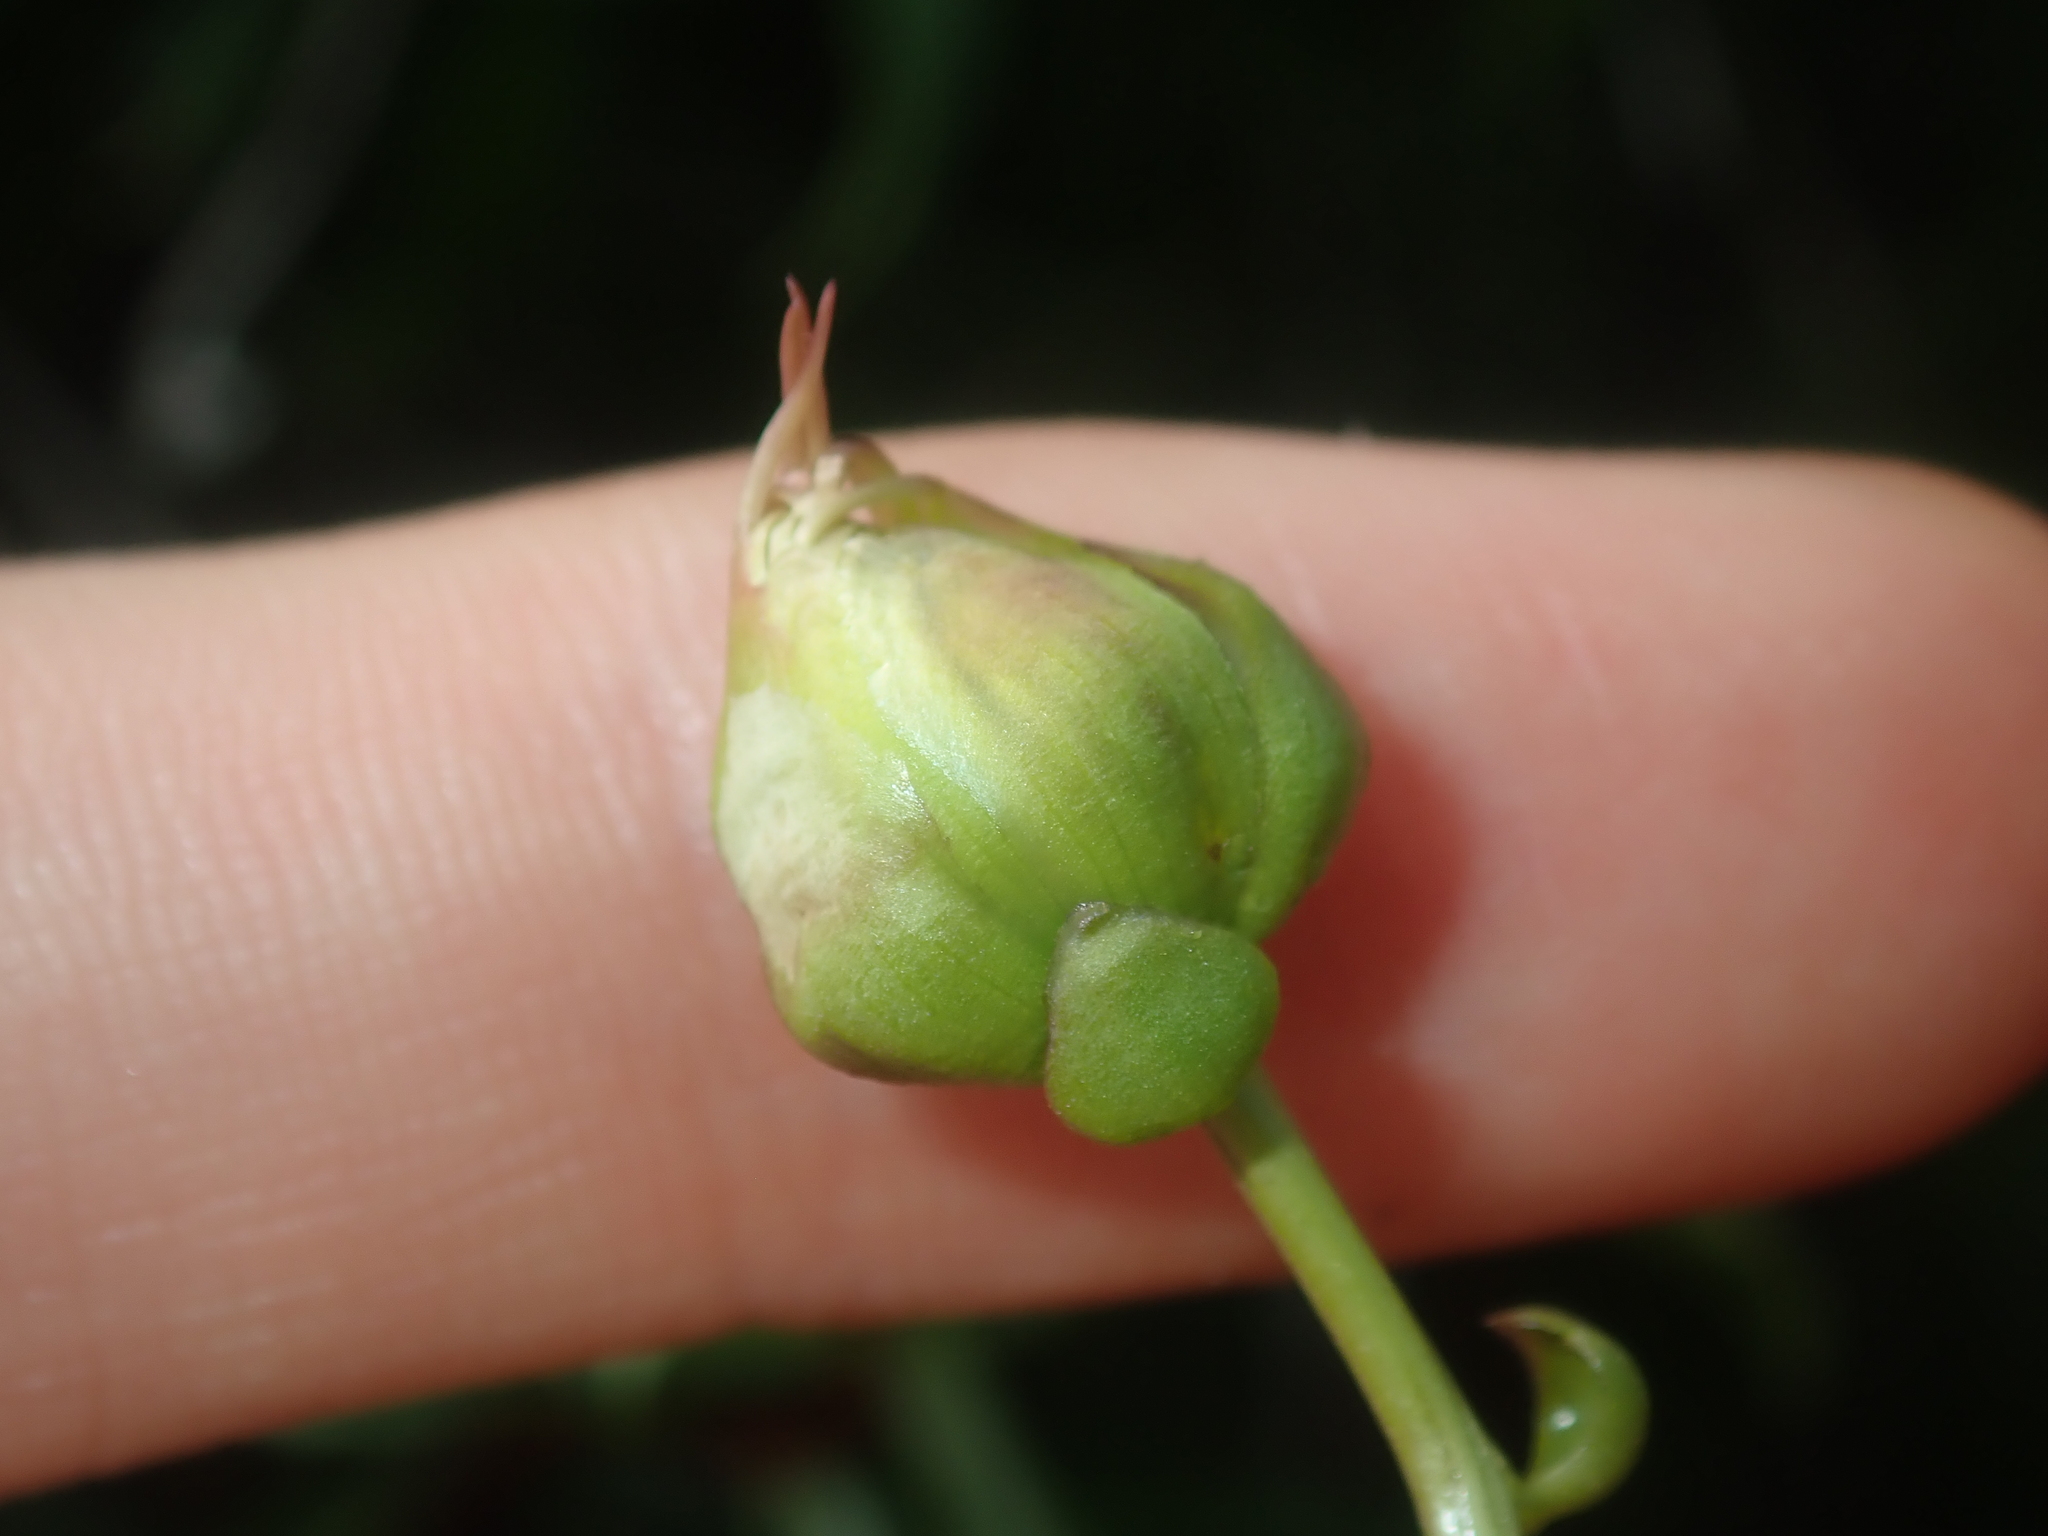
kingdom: Plantae
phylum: Tracheophyta
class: Magnoliopsida
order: Asterales
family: Asteraceae
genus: Pembertonia
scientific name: Pembertonia latisquamea
